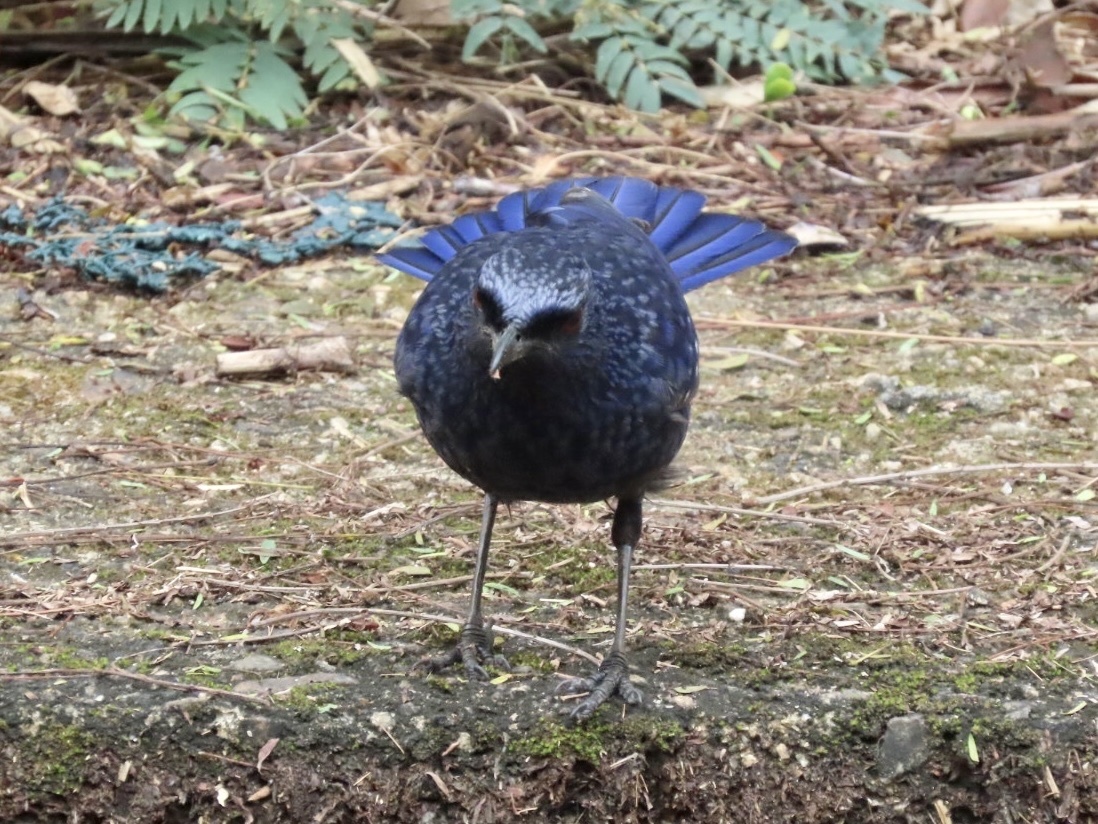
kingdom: Animalia
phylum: Chordata
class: Aves
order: Passeriformes
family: Muscicapidae
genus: Myophonus
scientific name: Myophonus caeruleus
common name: Blue whistling-thrush
